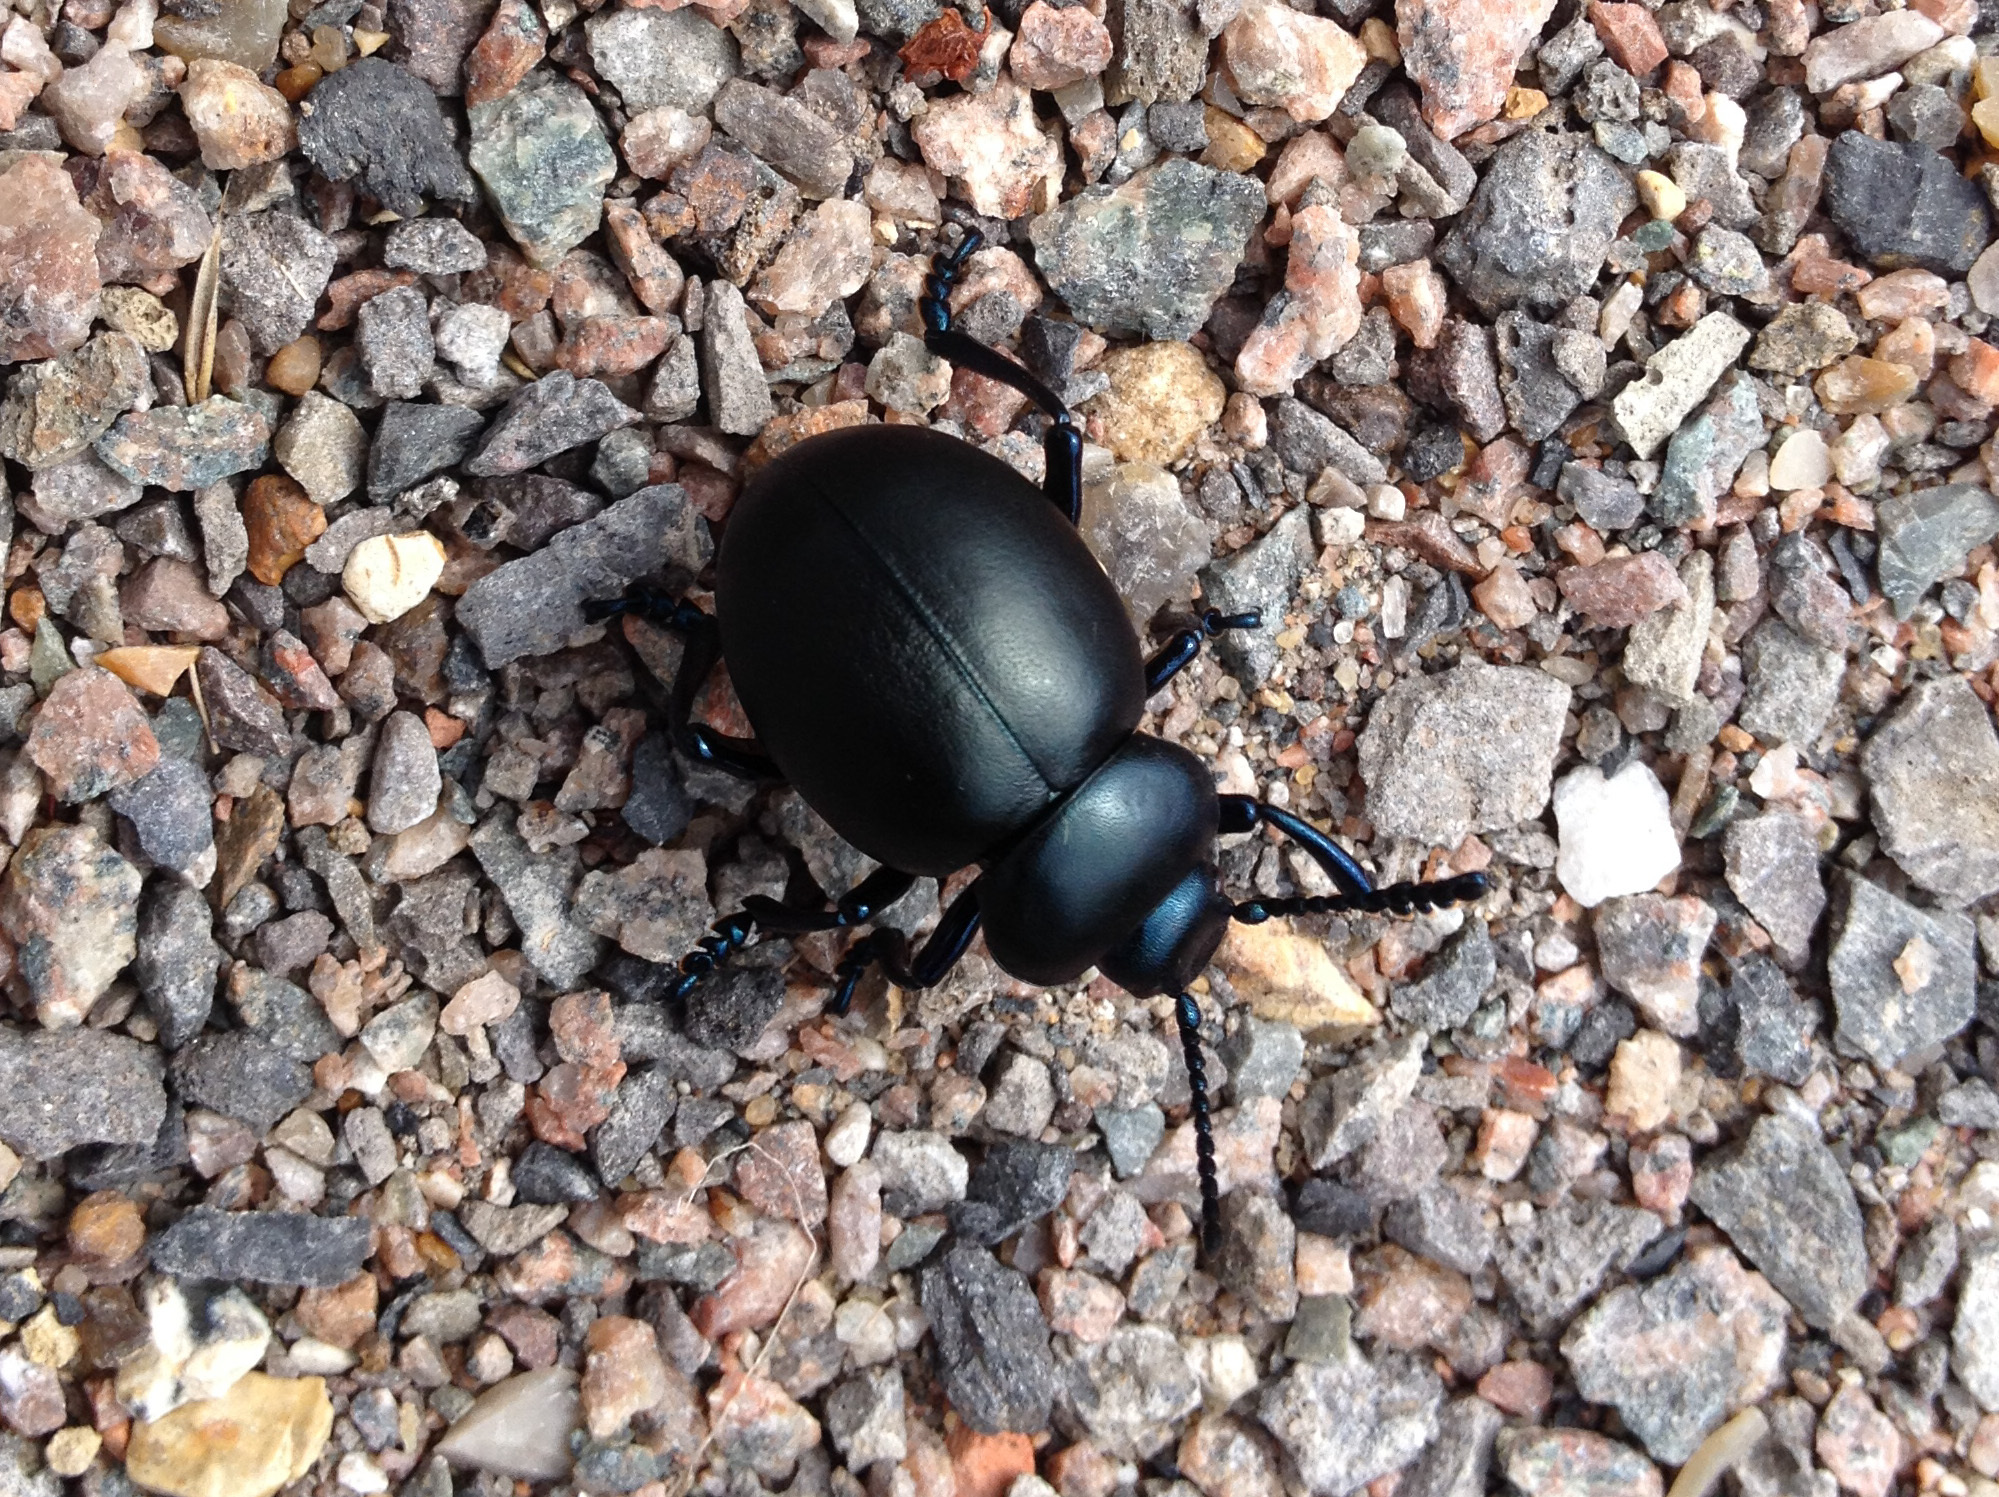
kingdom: Animalia
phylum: Arthropoda
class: Insecta
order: Coleoptera
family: Chrysomelidae
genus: Timarcha
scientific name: Timarcha tenebricosa
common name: Bloody-nosed beetle
